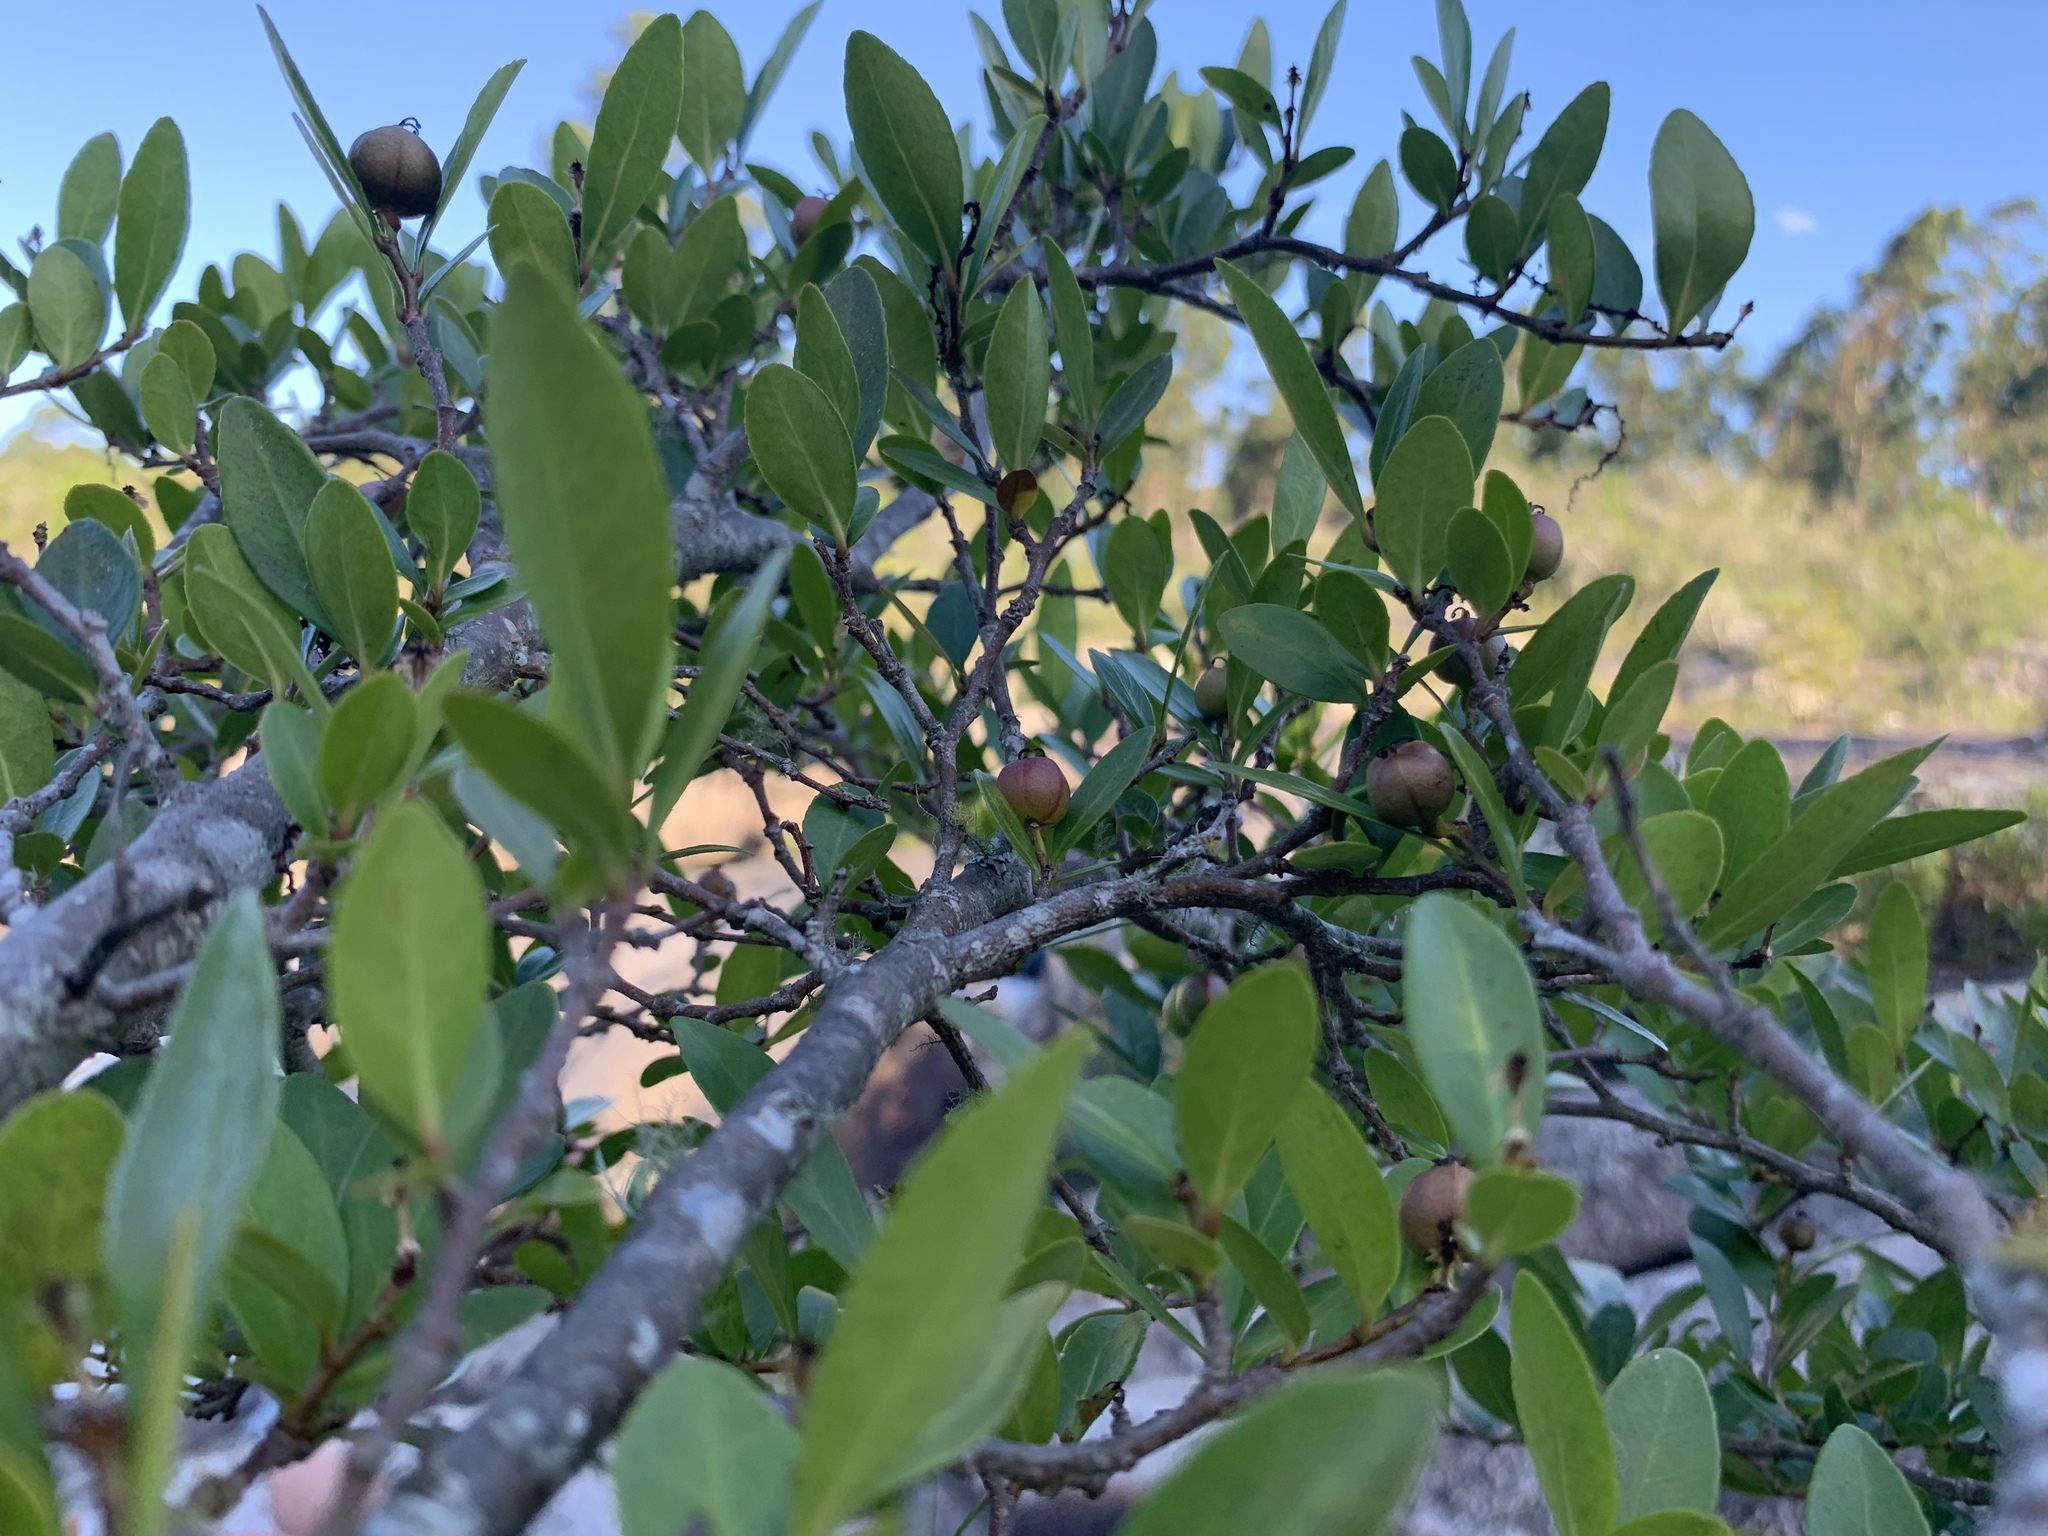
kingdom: Plantae
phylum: Tracheophyta
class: Magnoliopsida
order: Malpighiales
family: Euphorbiaceae
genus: Sebastiania
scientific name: Sebastiania brasiliensis
